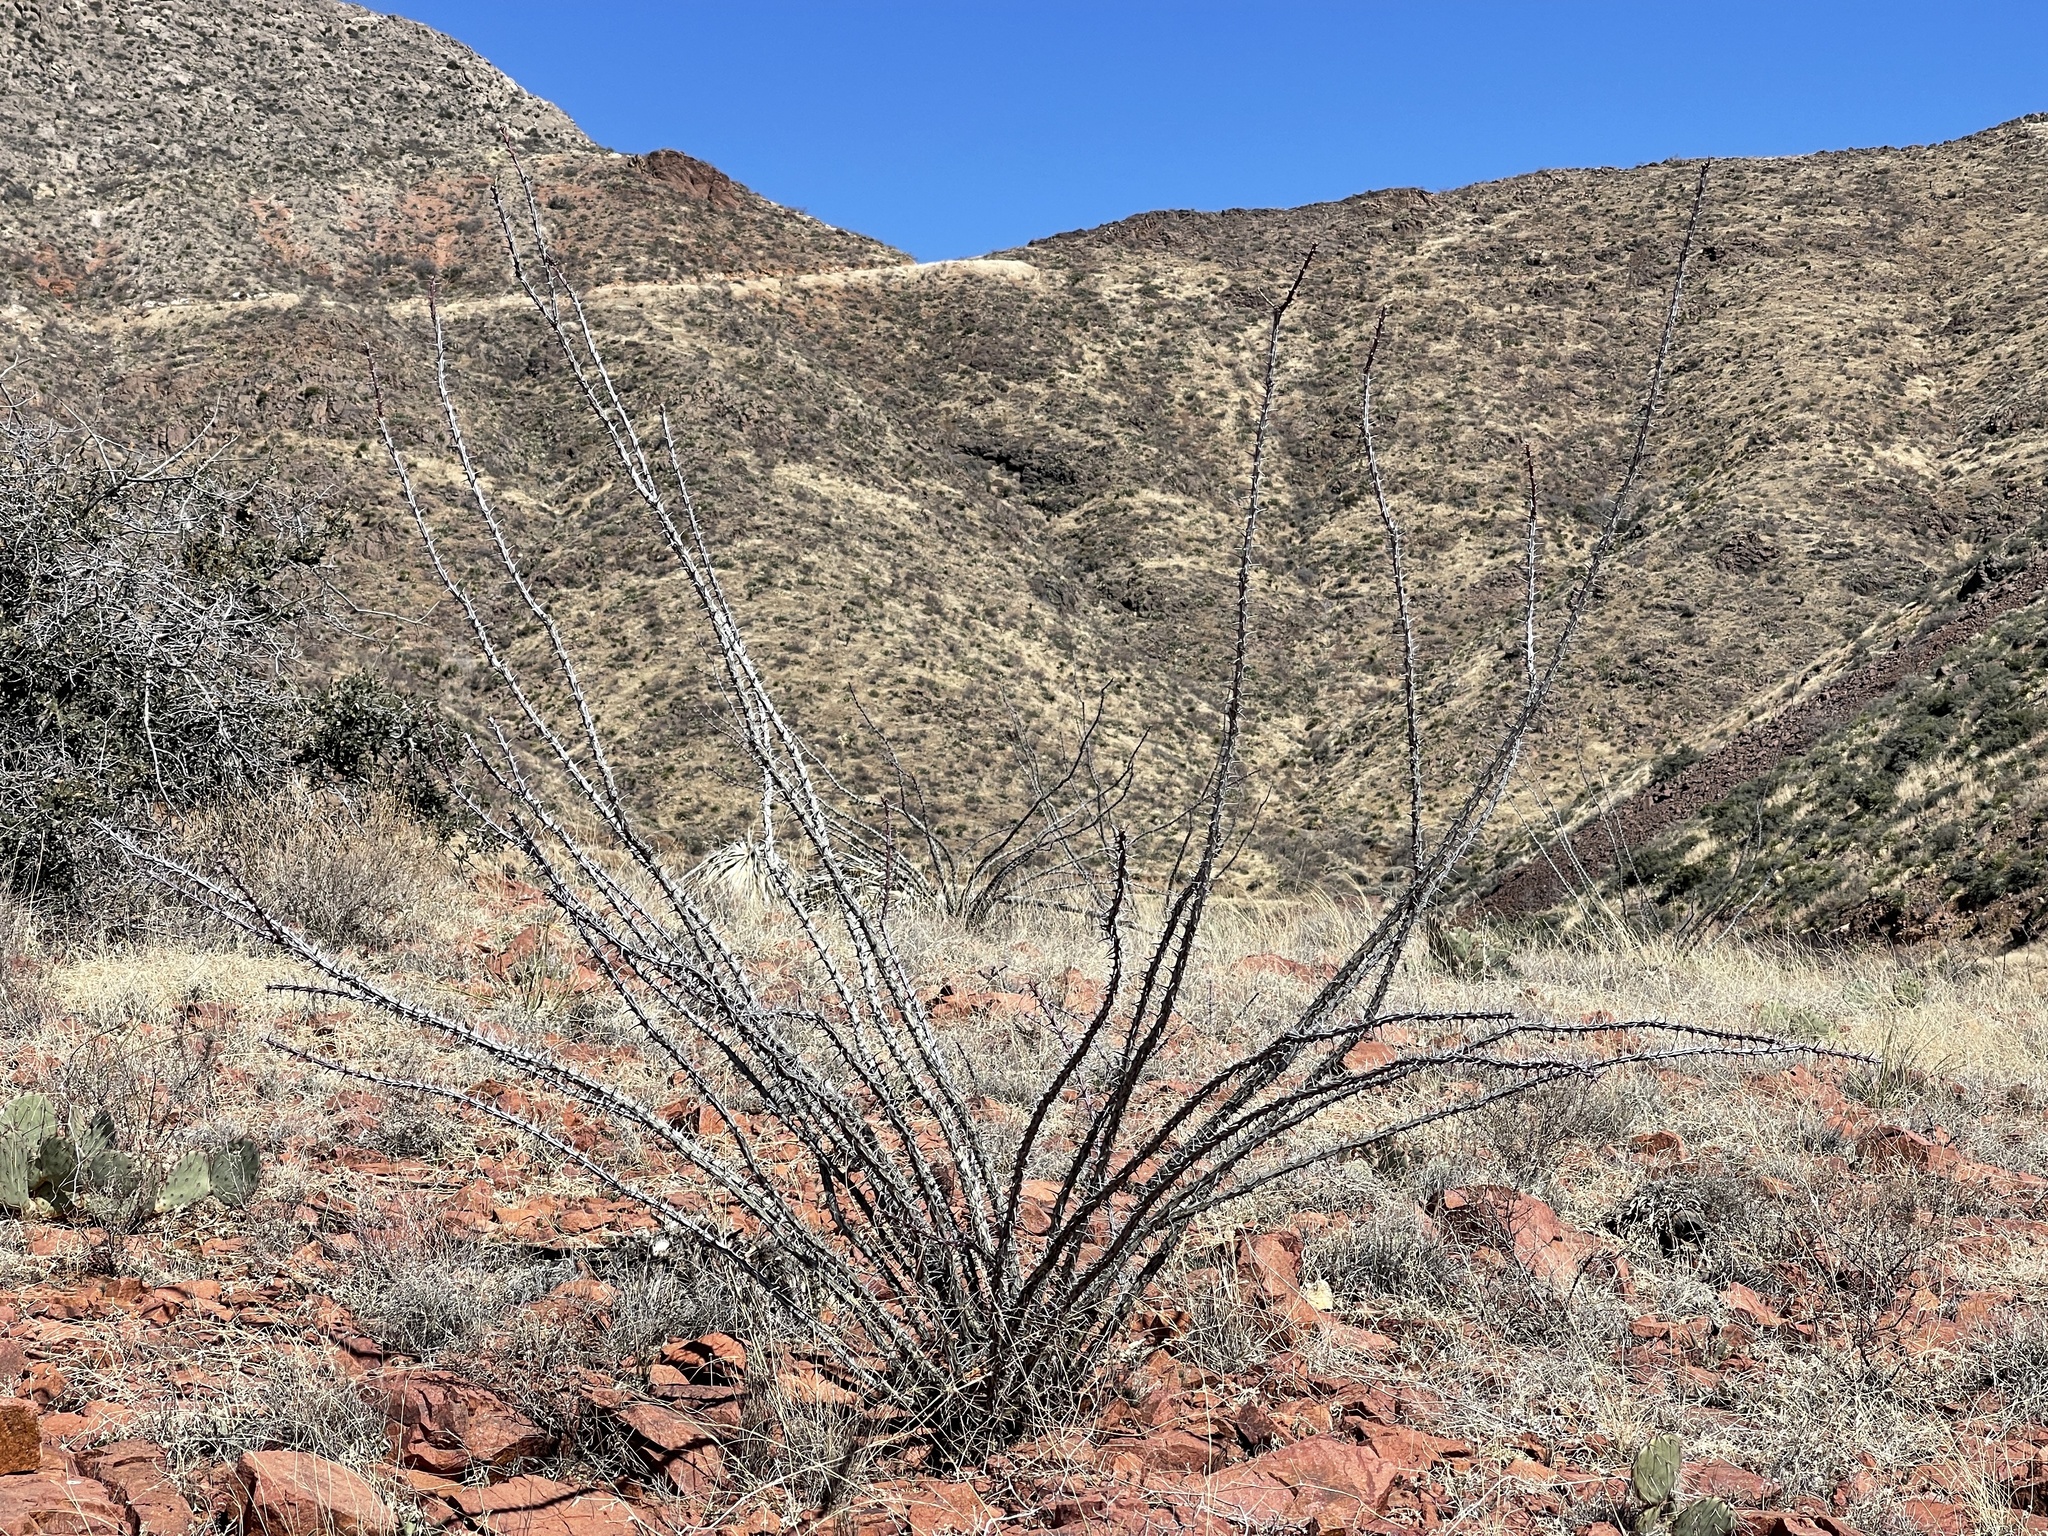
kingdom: Plantae
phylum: Tracheophyta
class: Magnoliopsida
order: Ericales
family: Fouquieriaceae
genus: Fouquieria
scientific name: Fouquieria splendens
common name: Vine-cactus
